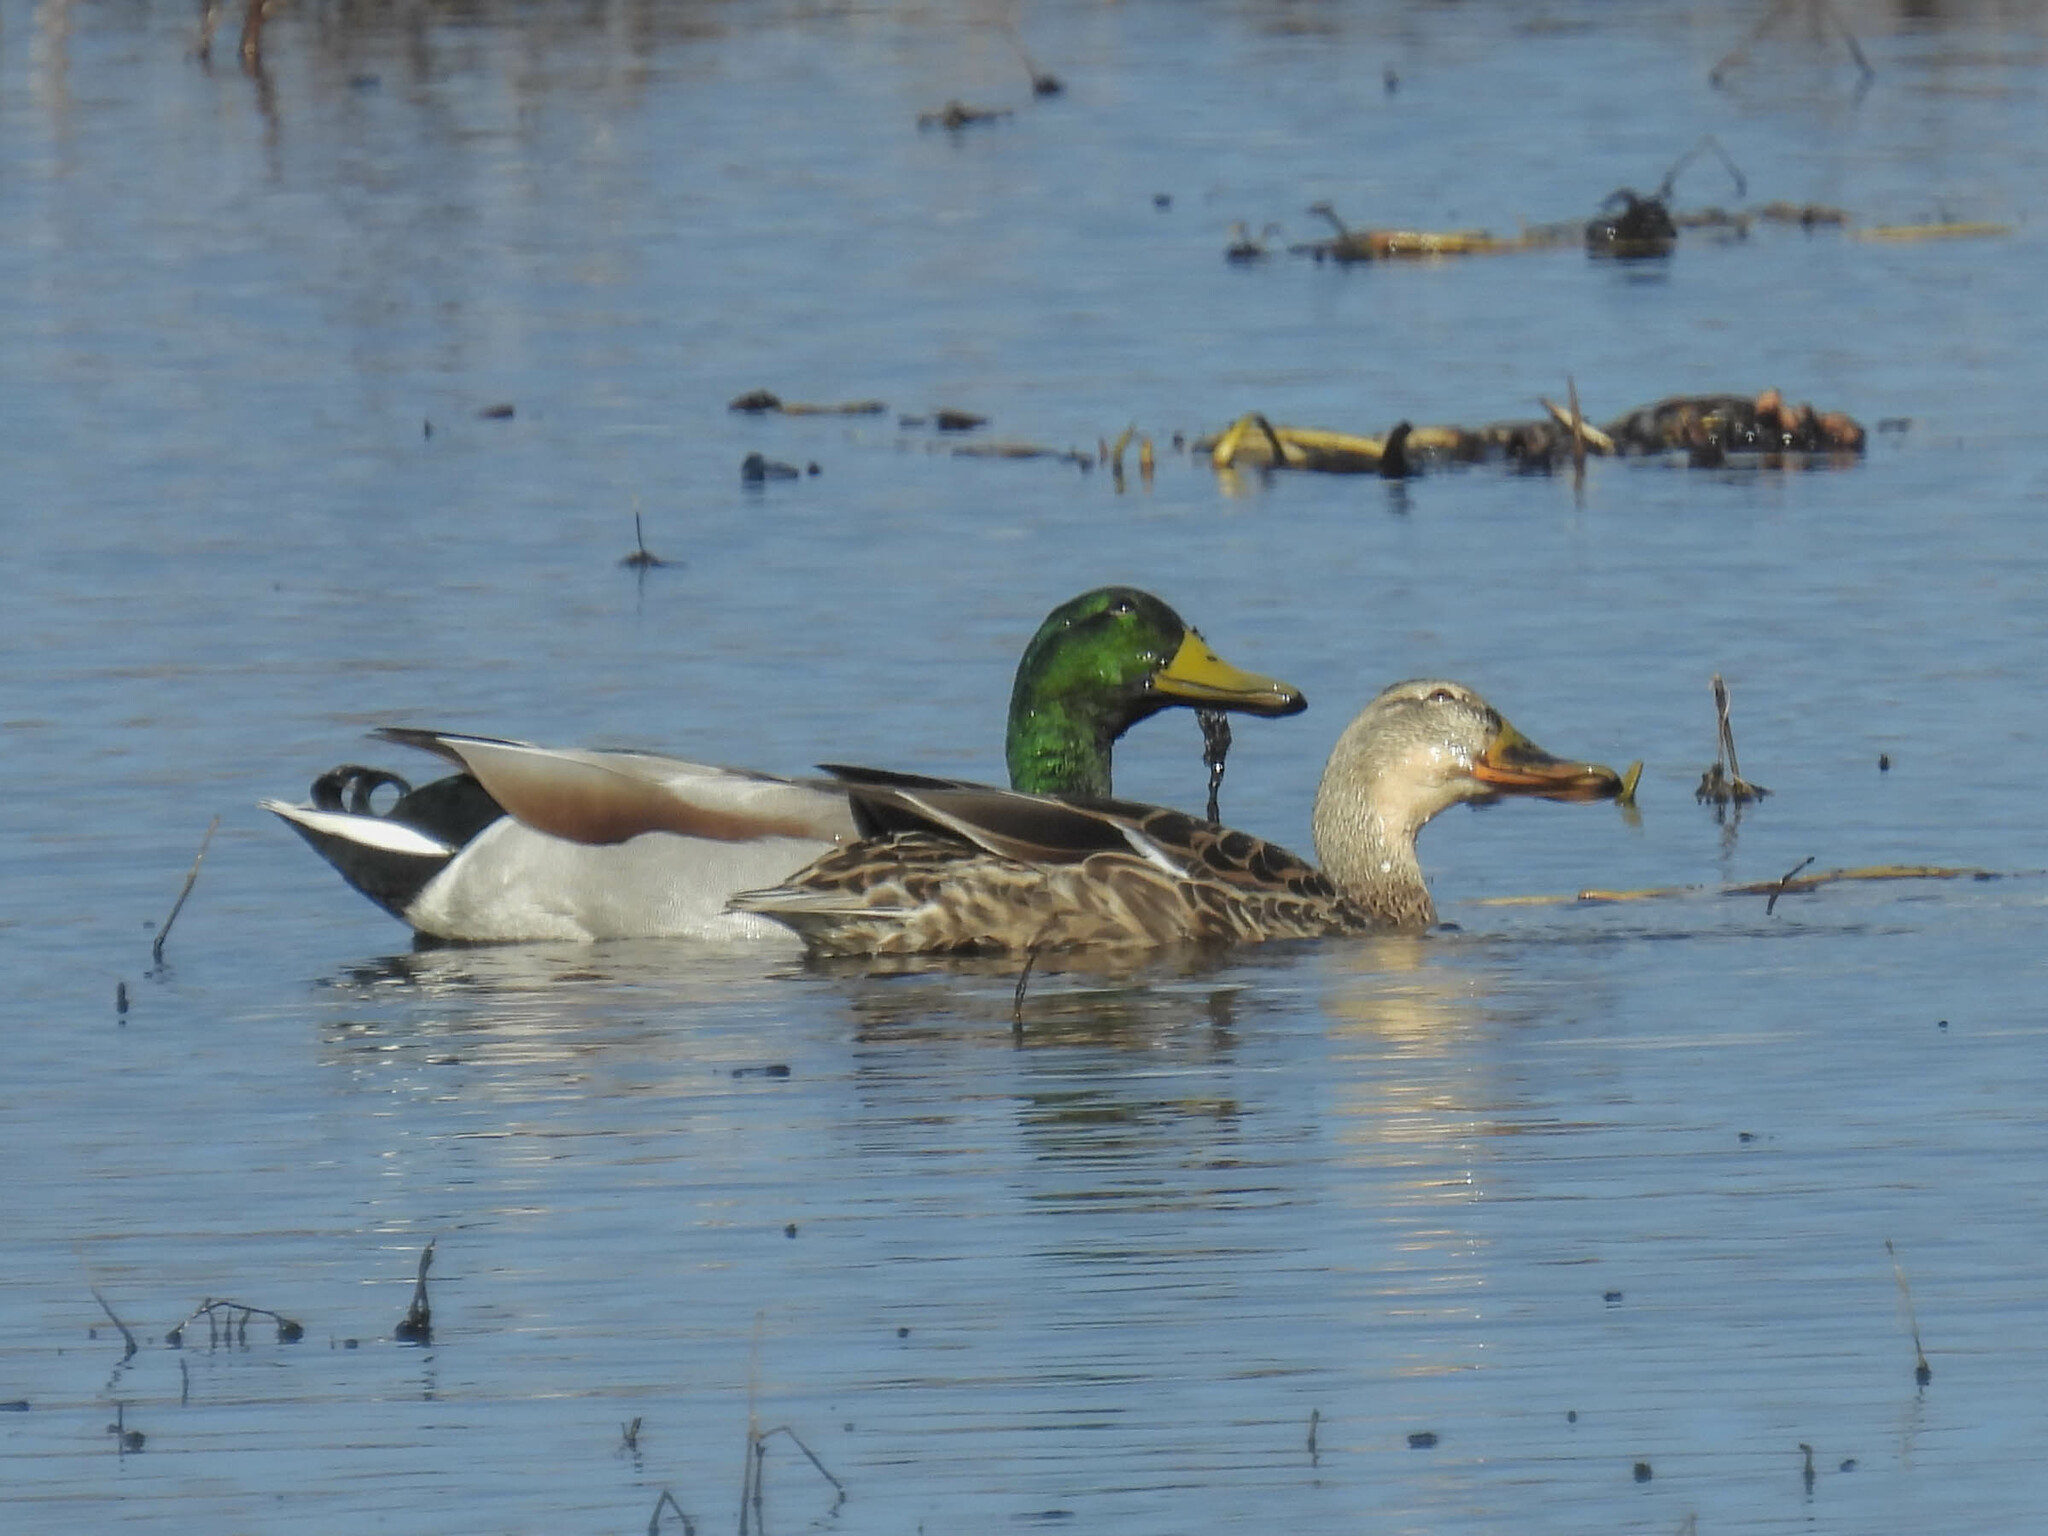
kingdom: Animalia
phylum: Chordata
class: Aves
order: Anseriformes
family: Anatidae
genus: Anas
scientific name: Anas platyrhynchos
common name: Mallard
